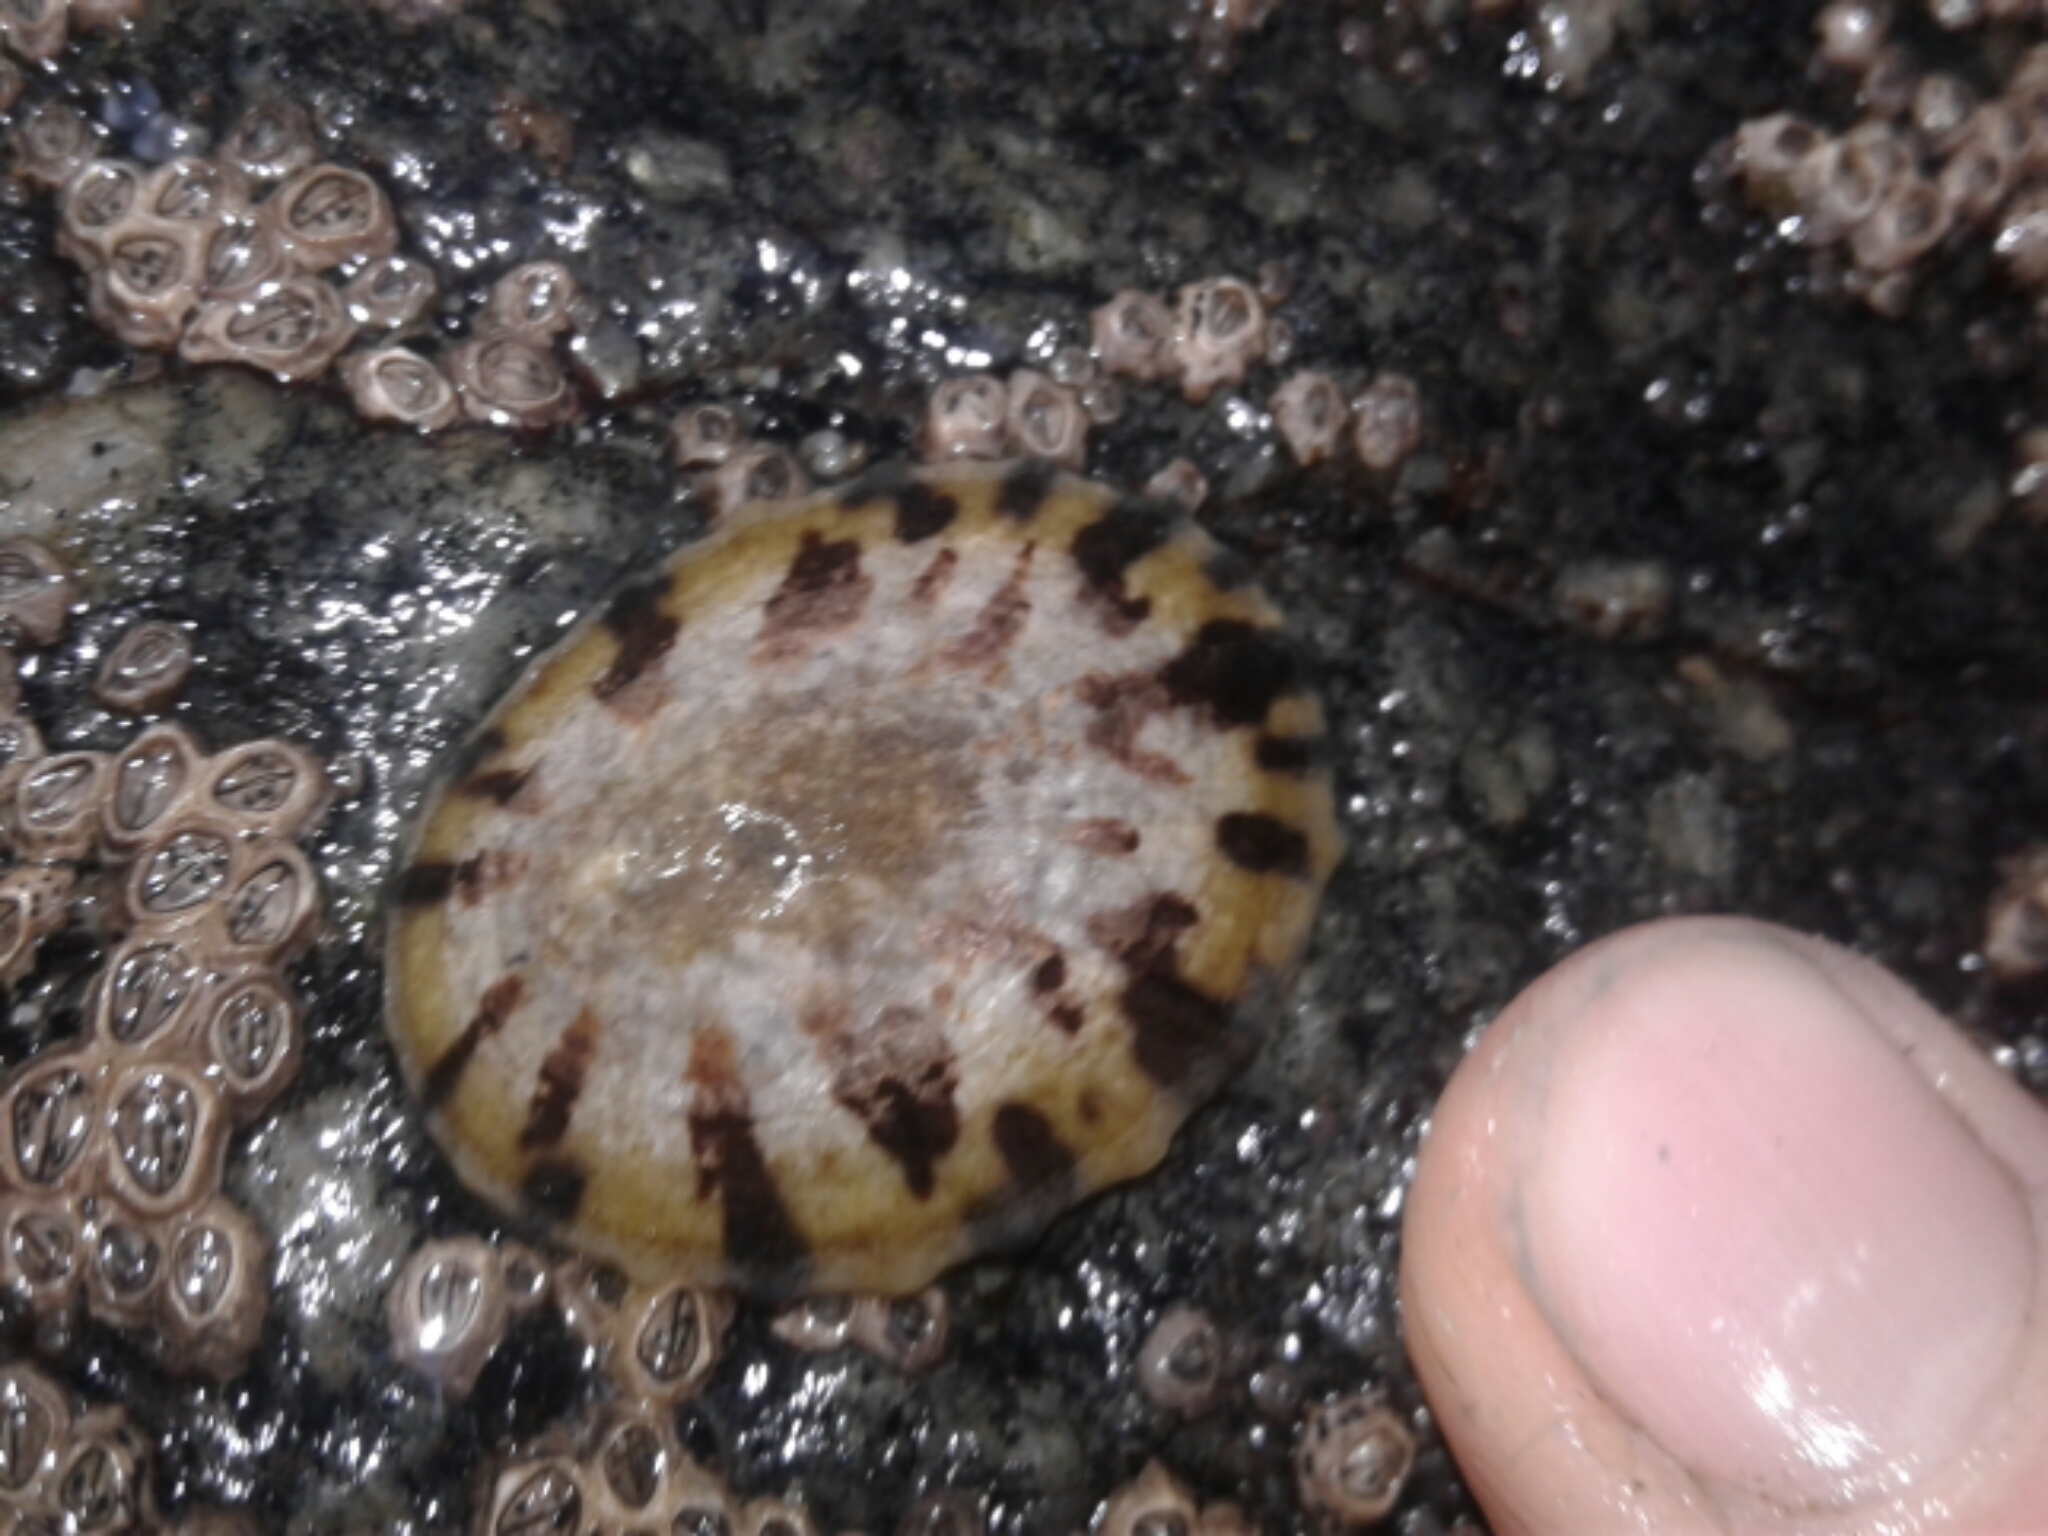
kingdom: Animalia
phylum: Mollusca
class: Gastropoda
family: Nacellidae
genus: Cellana
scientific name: Cellana radians
